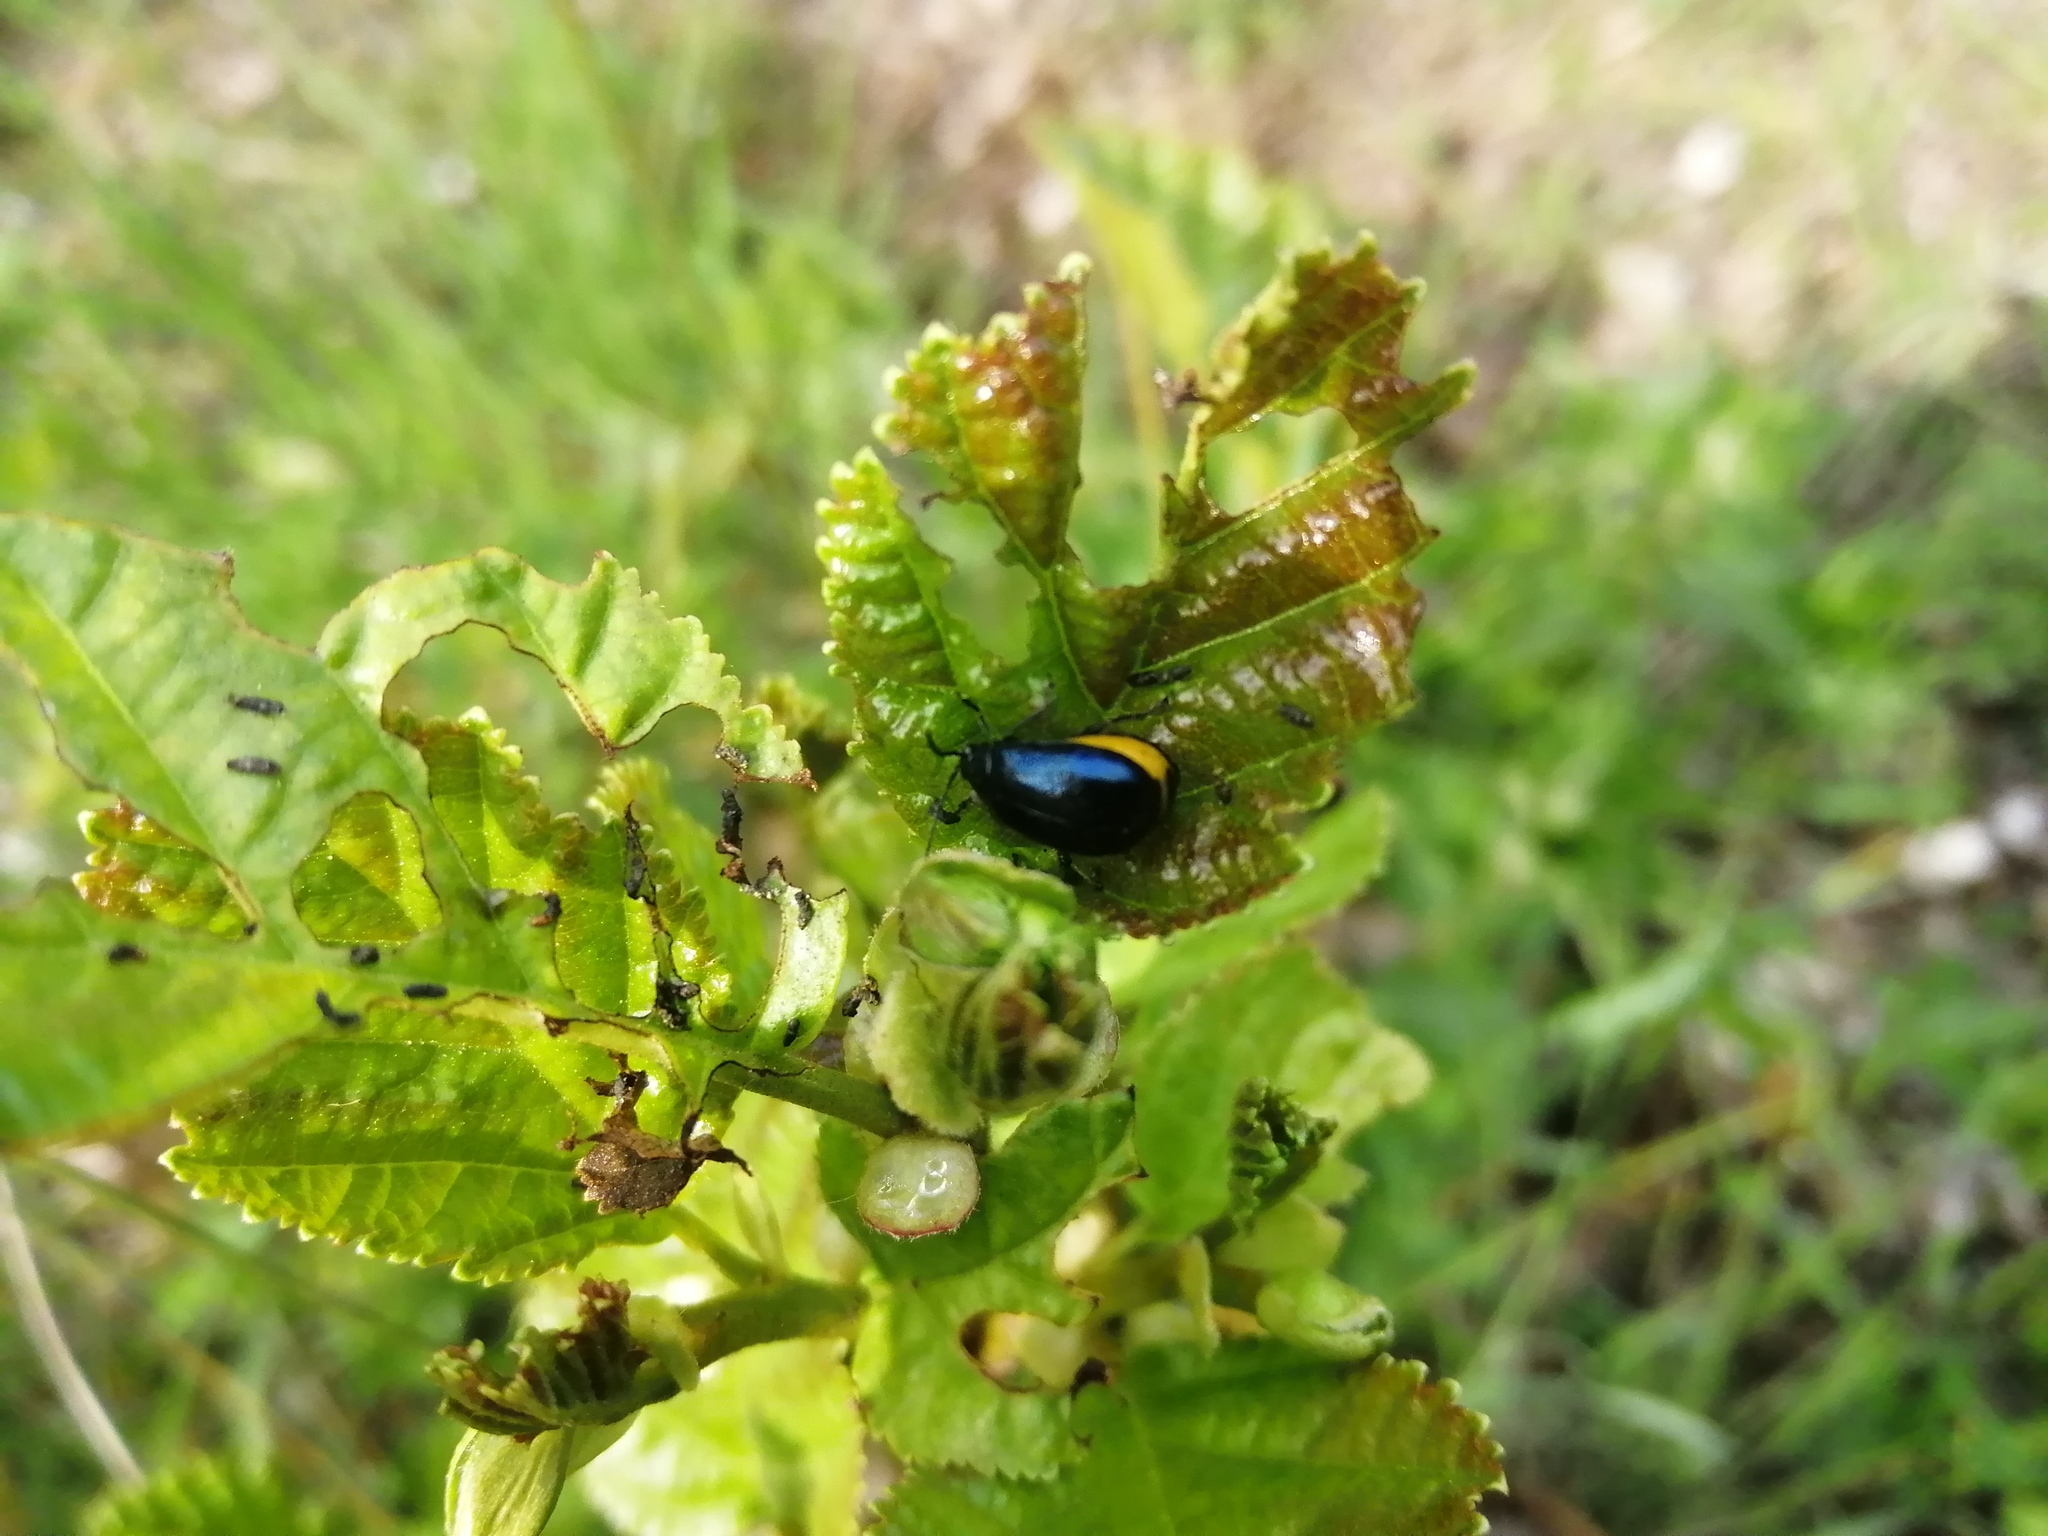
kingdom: Animalia
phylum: Arthropoda
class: Insecta
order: Coleoptera
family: Chrysomelidae
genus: Agelastica
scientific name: Agelastica alni
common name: Alder leaf beetle
